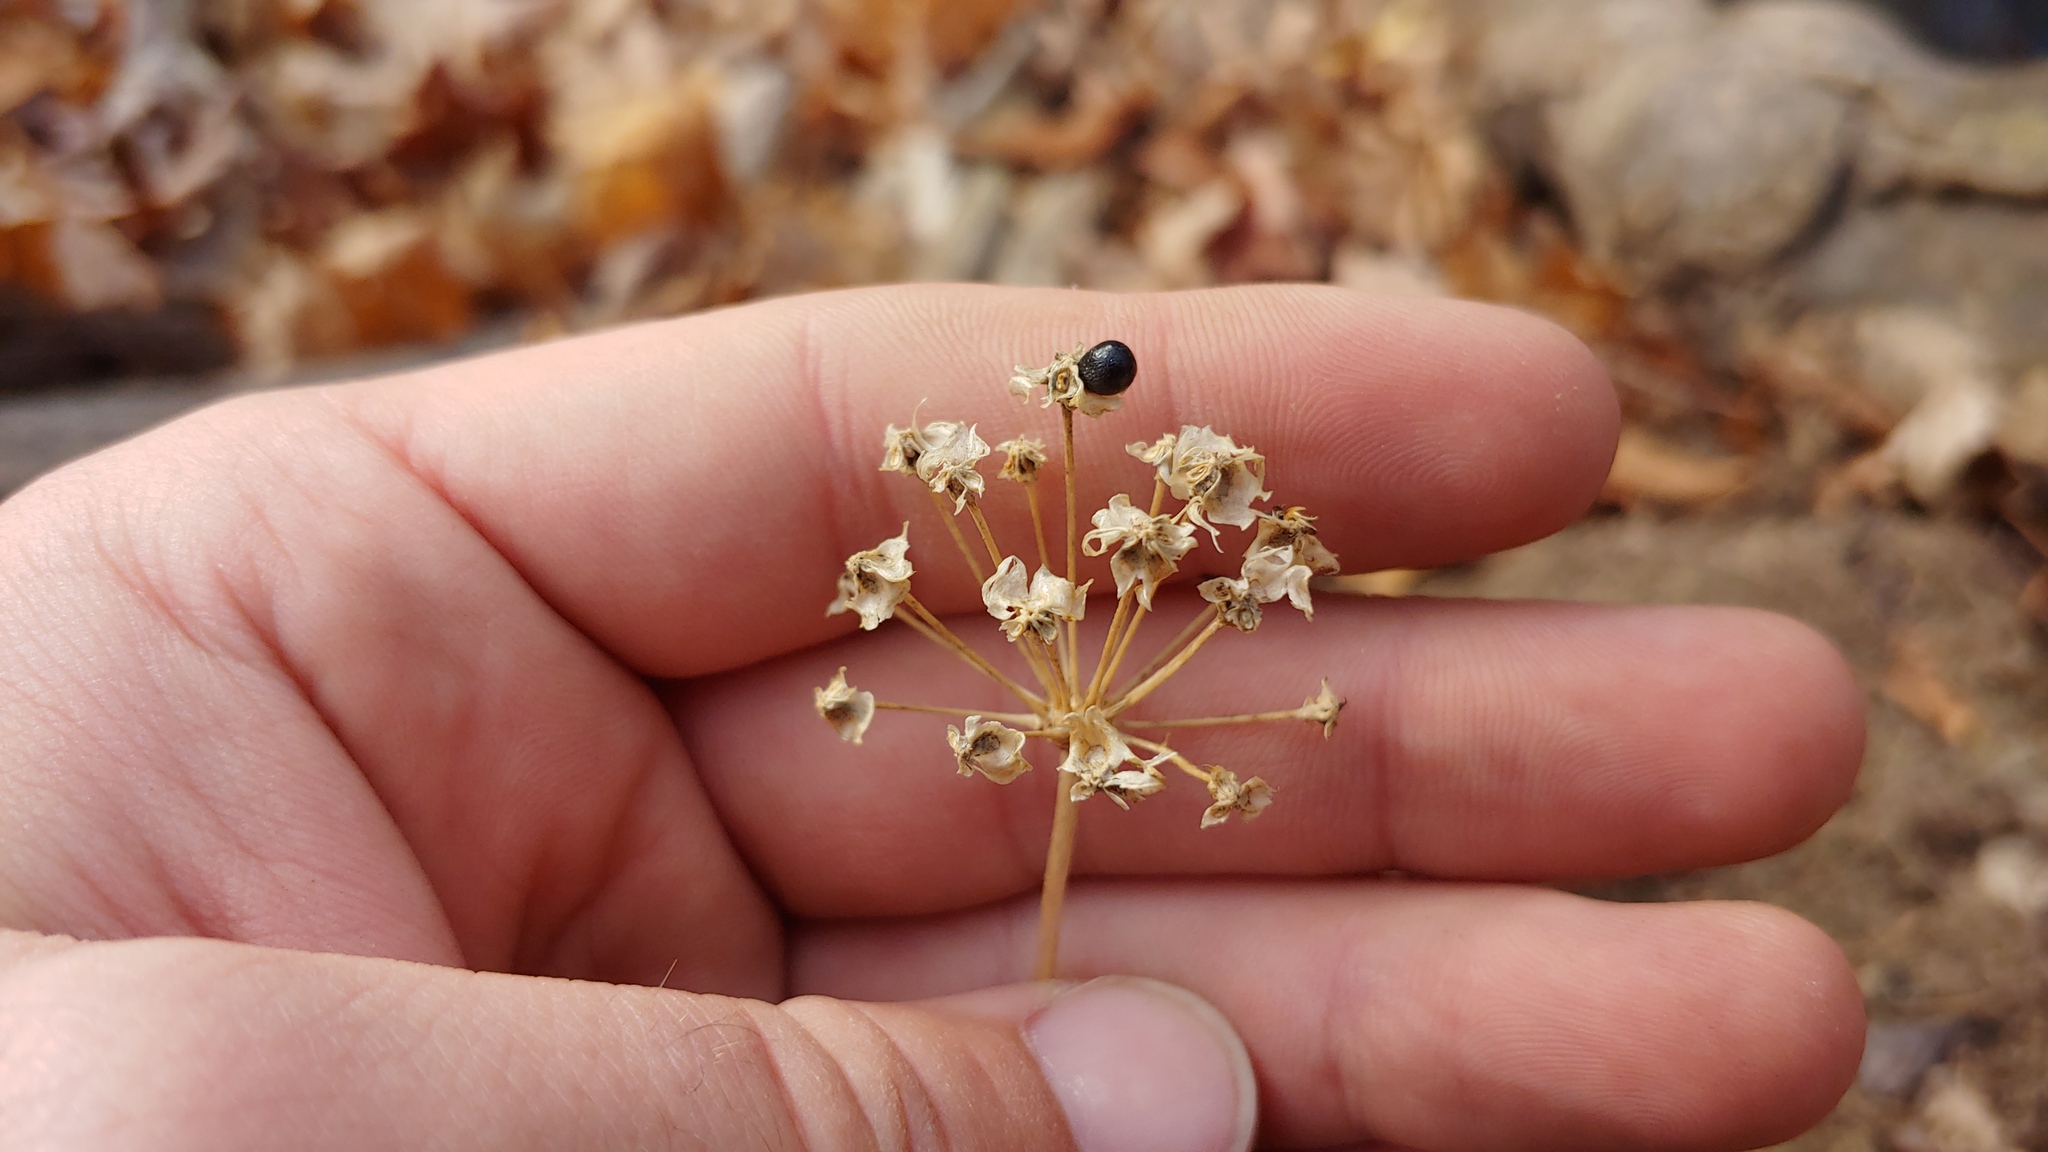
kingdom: Plantae
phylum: Tracheophyta
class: Liliopsida
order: Asparagales
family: Amaryllidaceae
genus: Allium
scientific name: Allium tricoccum
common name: Ramp
